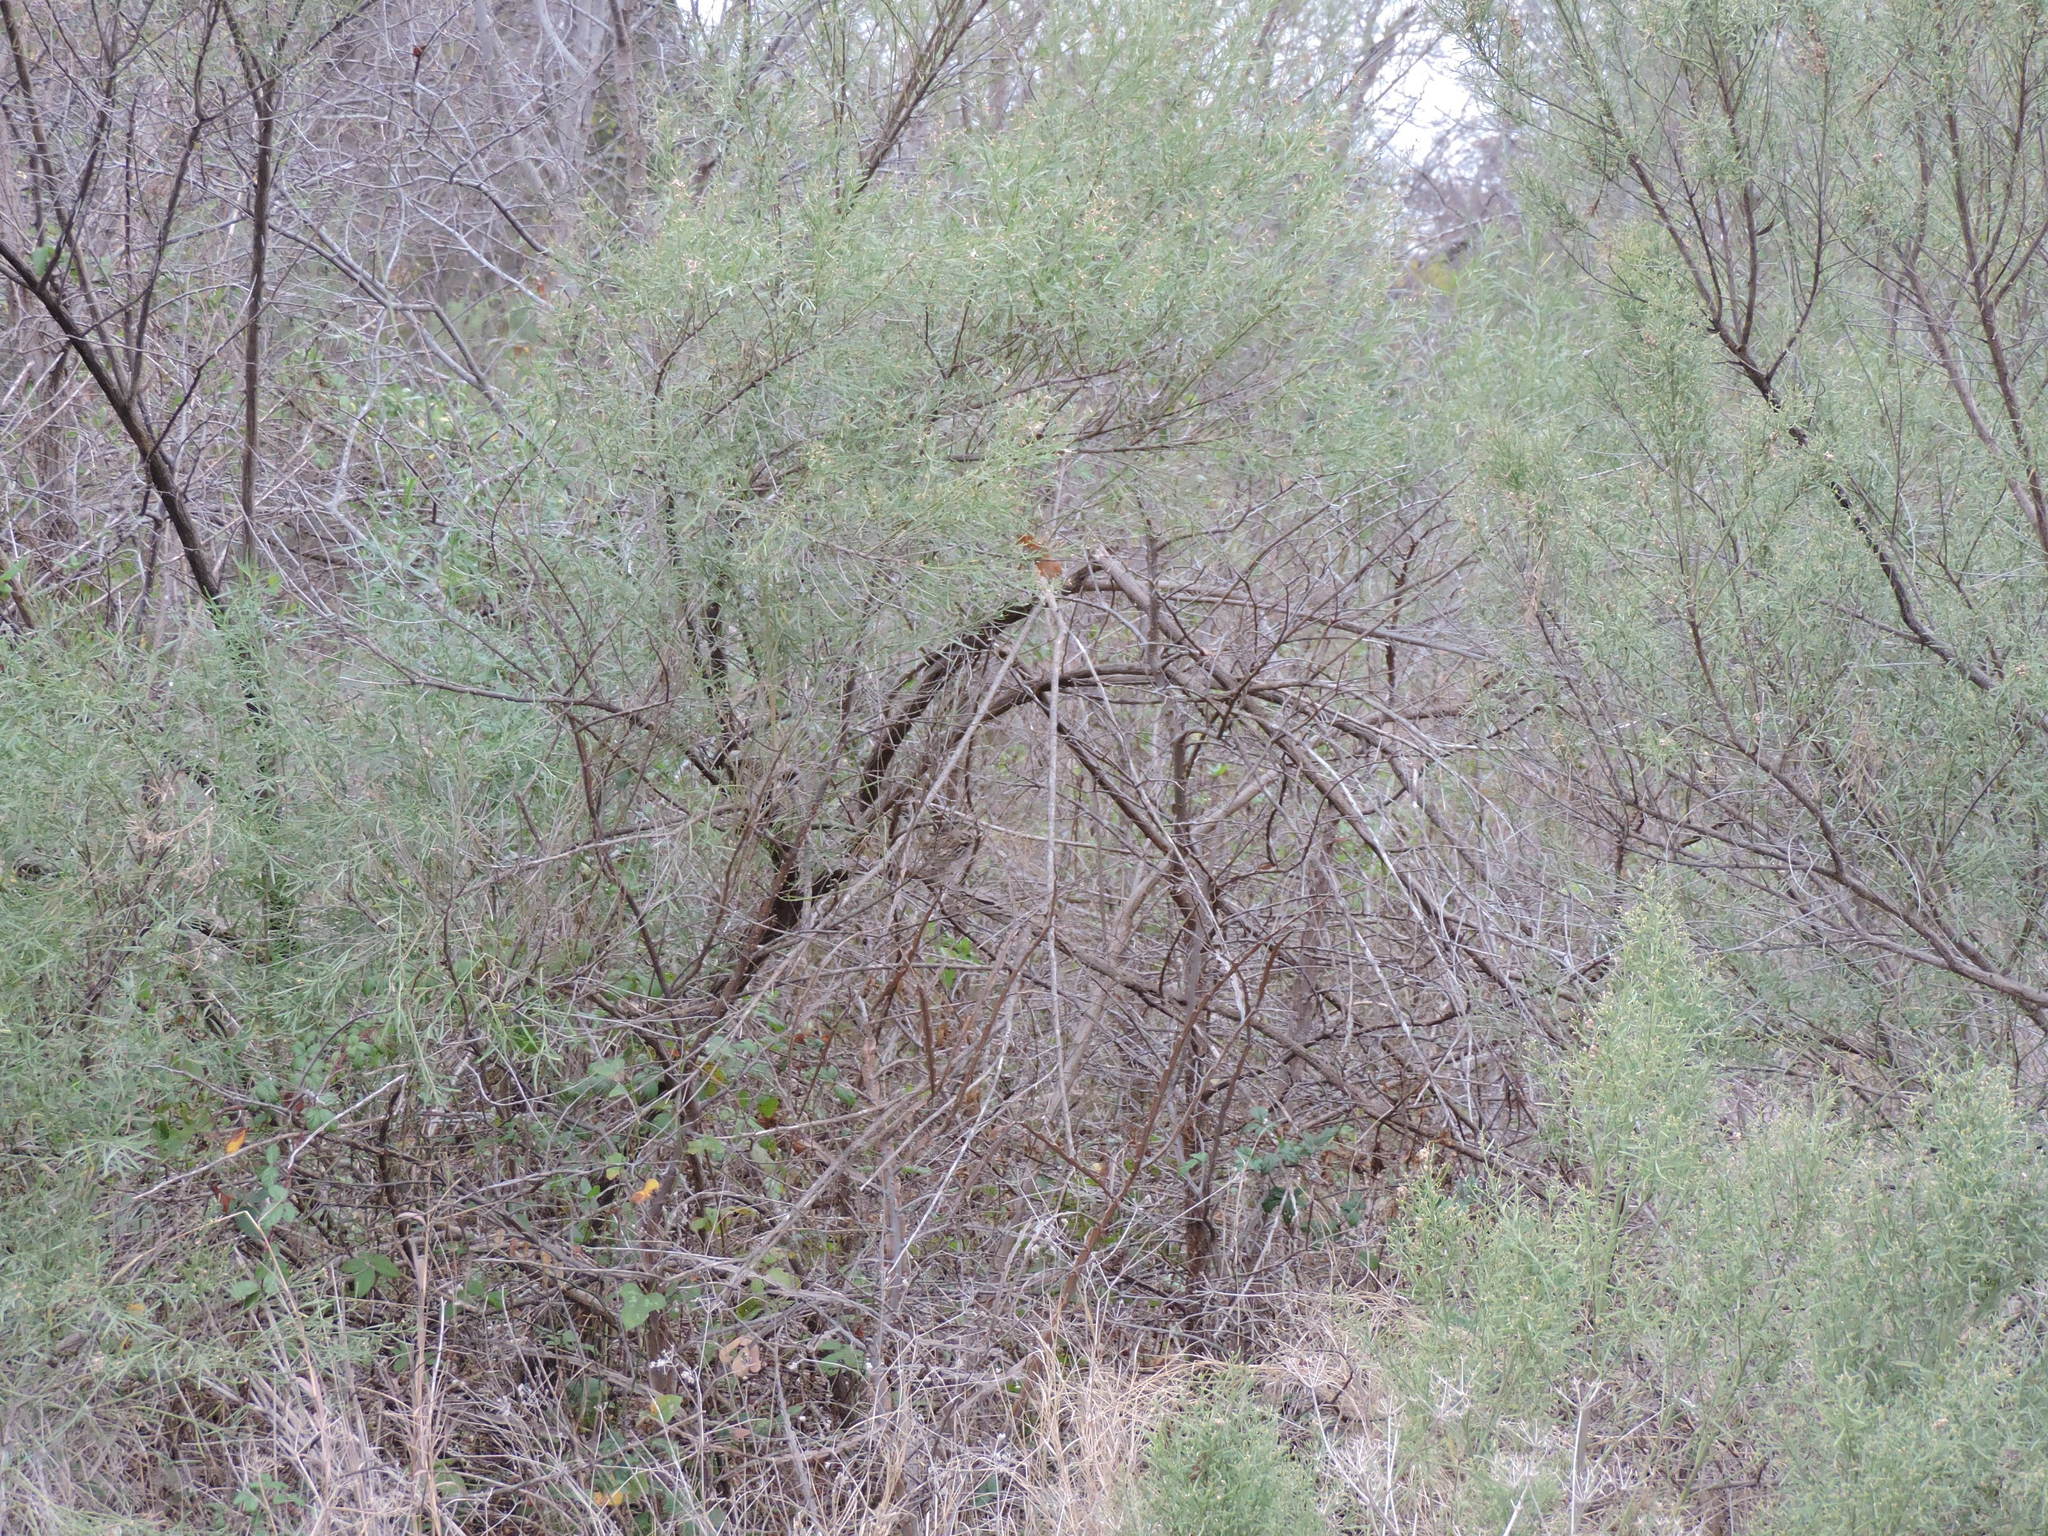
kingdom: Animalia
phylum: Chordata
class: Aves
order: Passeriformes
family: Passerellidae
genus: Melospiza
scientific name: Melospiza melodia
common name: Song sparrow
